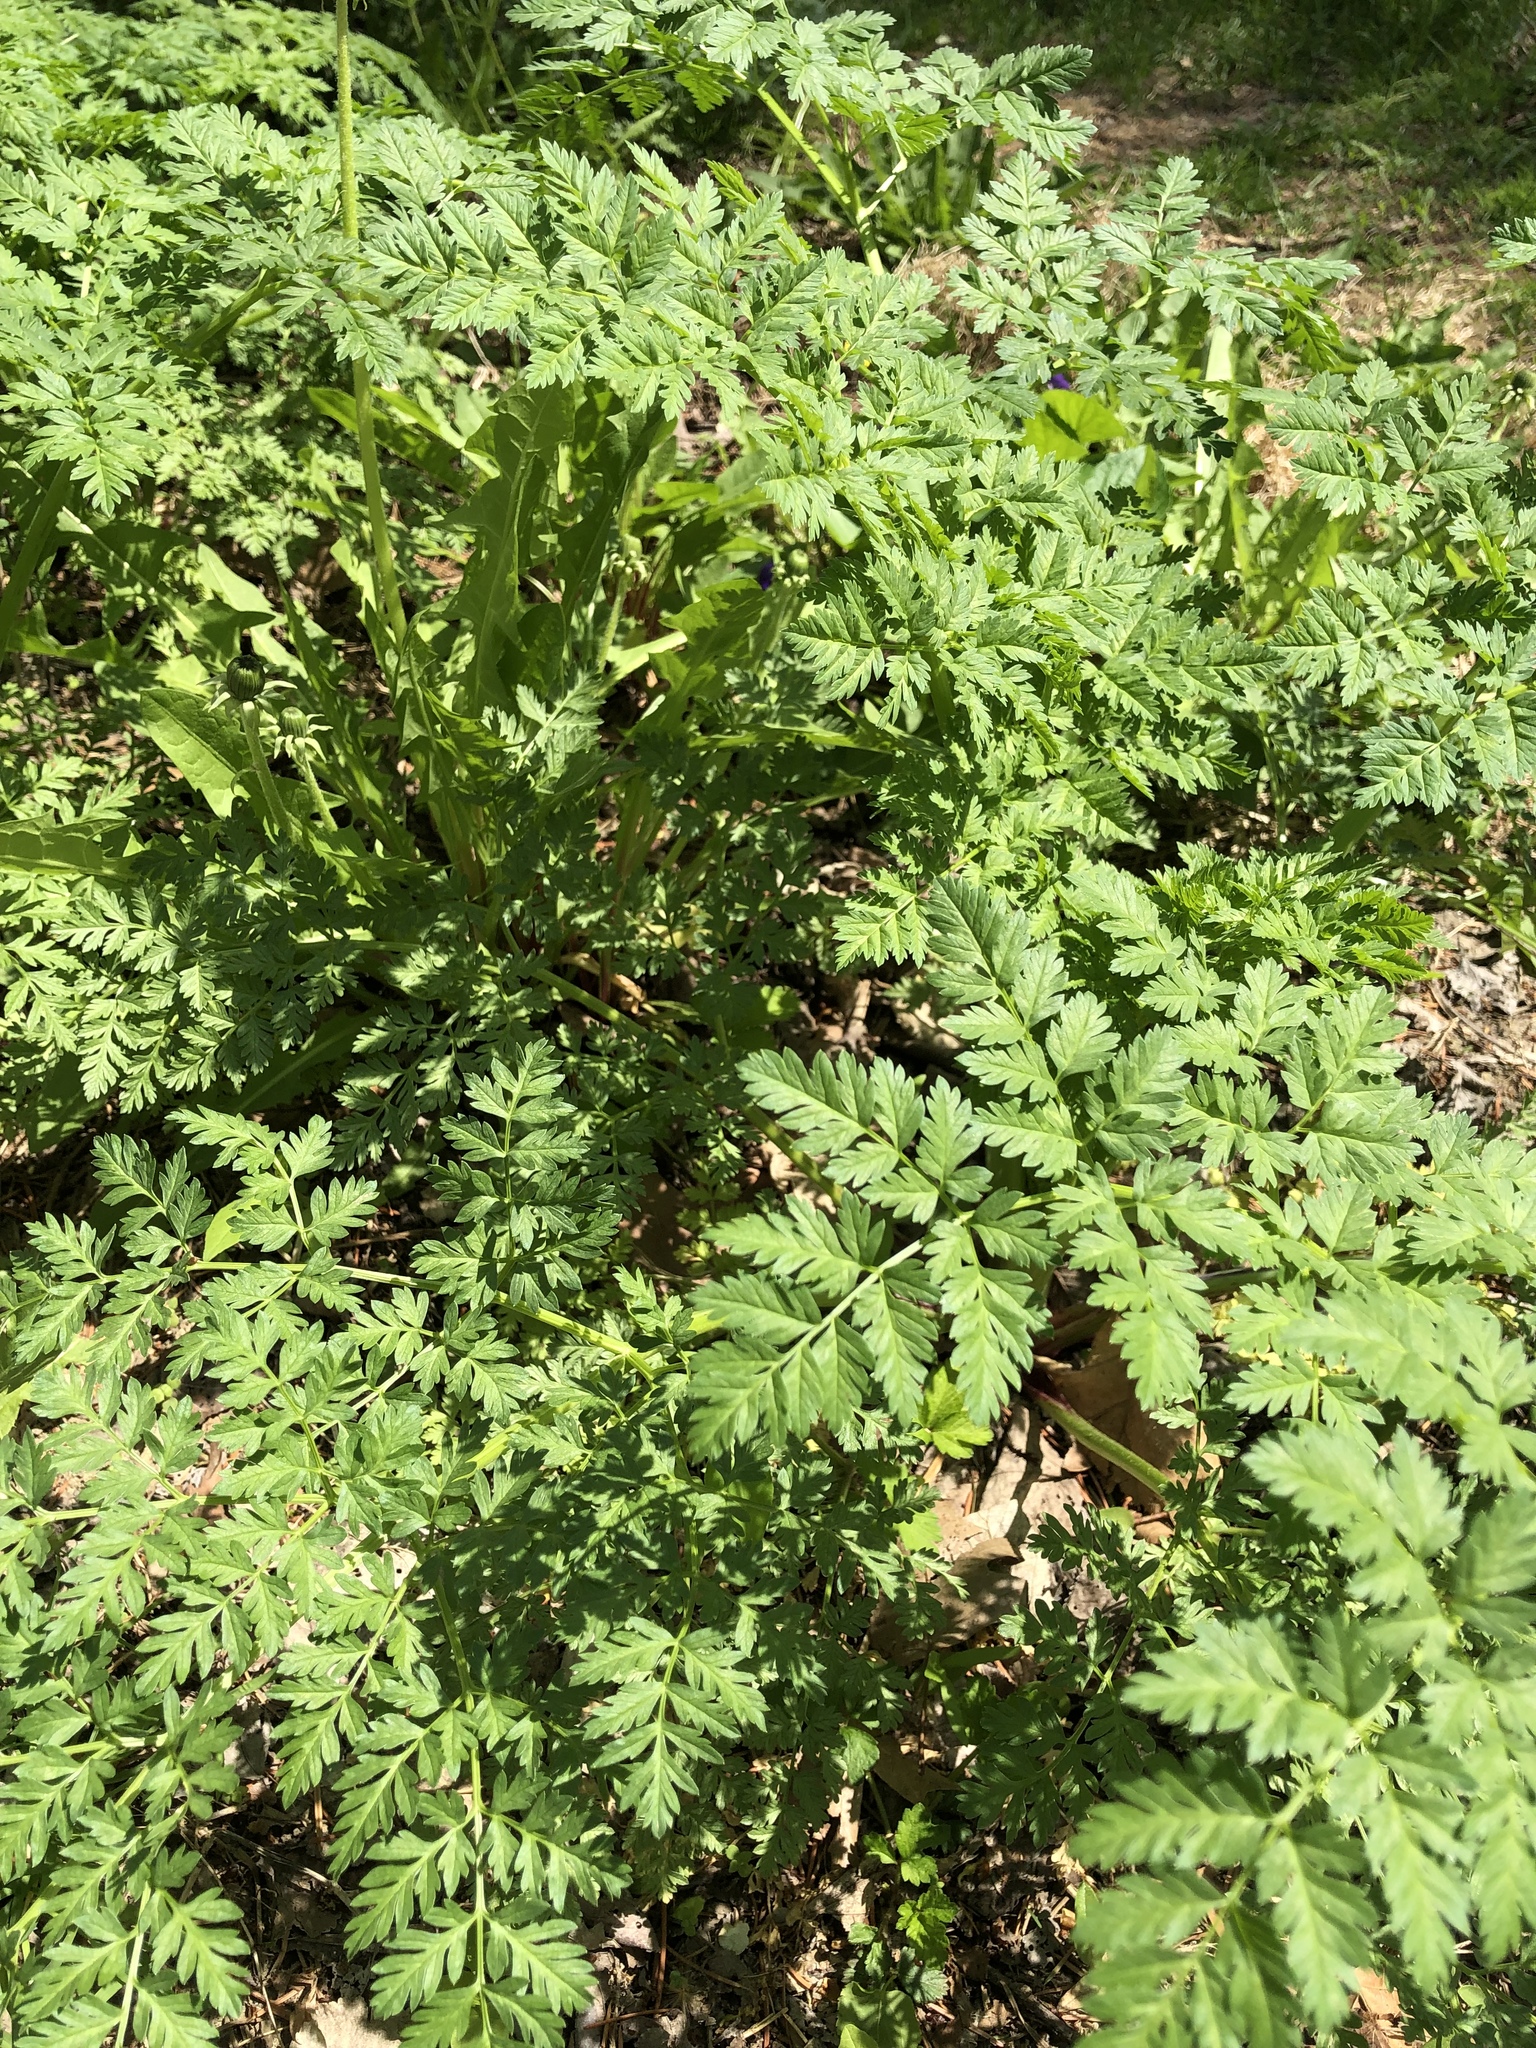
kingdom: Plantae
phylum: Tracheophyta
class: Magnoliopsida
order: Apiales
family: Apiaceae
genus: Conium
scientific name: Conium maculatum
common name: Hemlock
